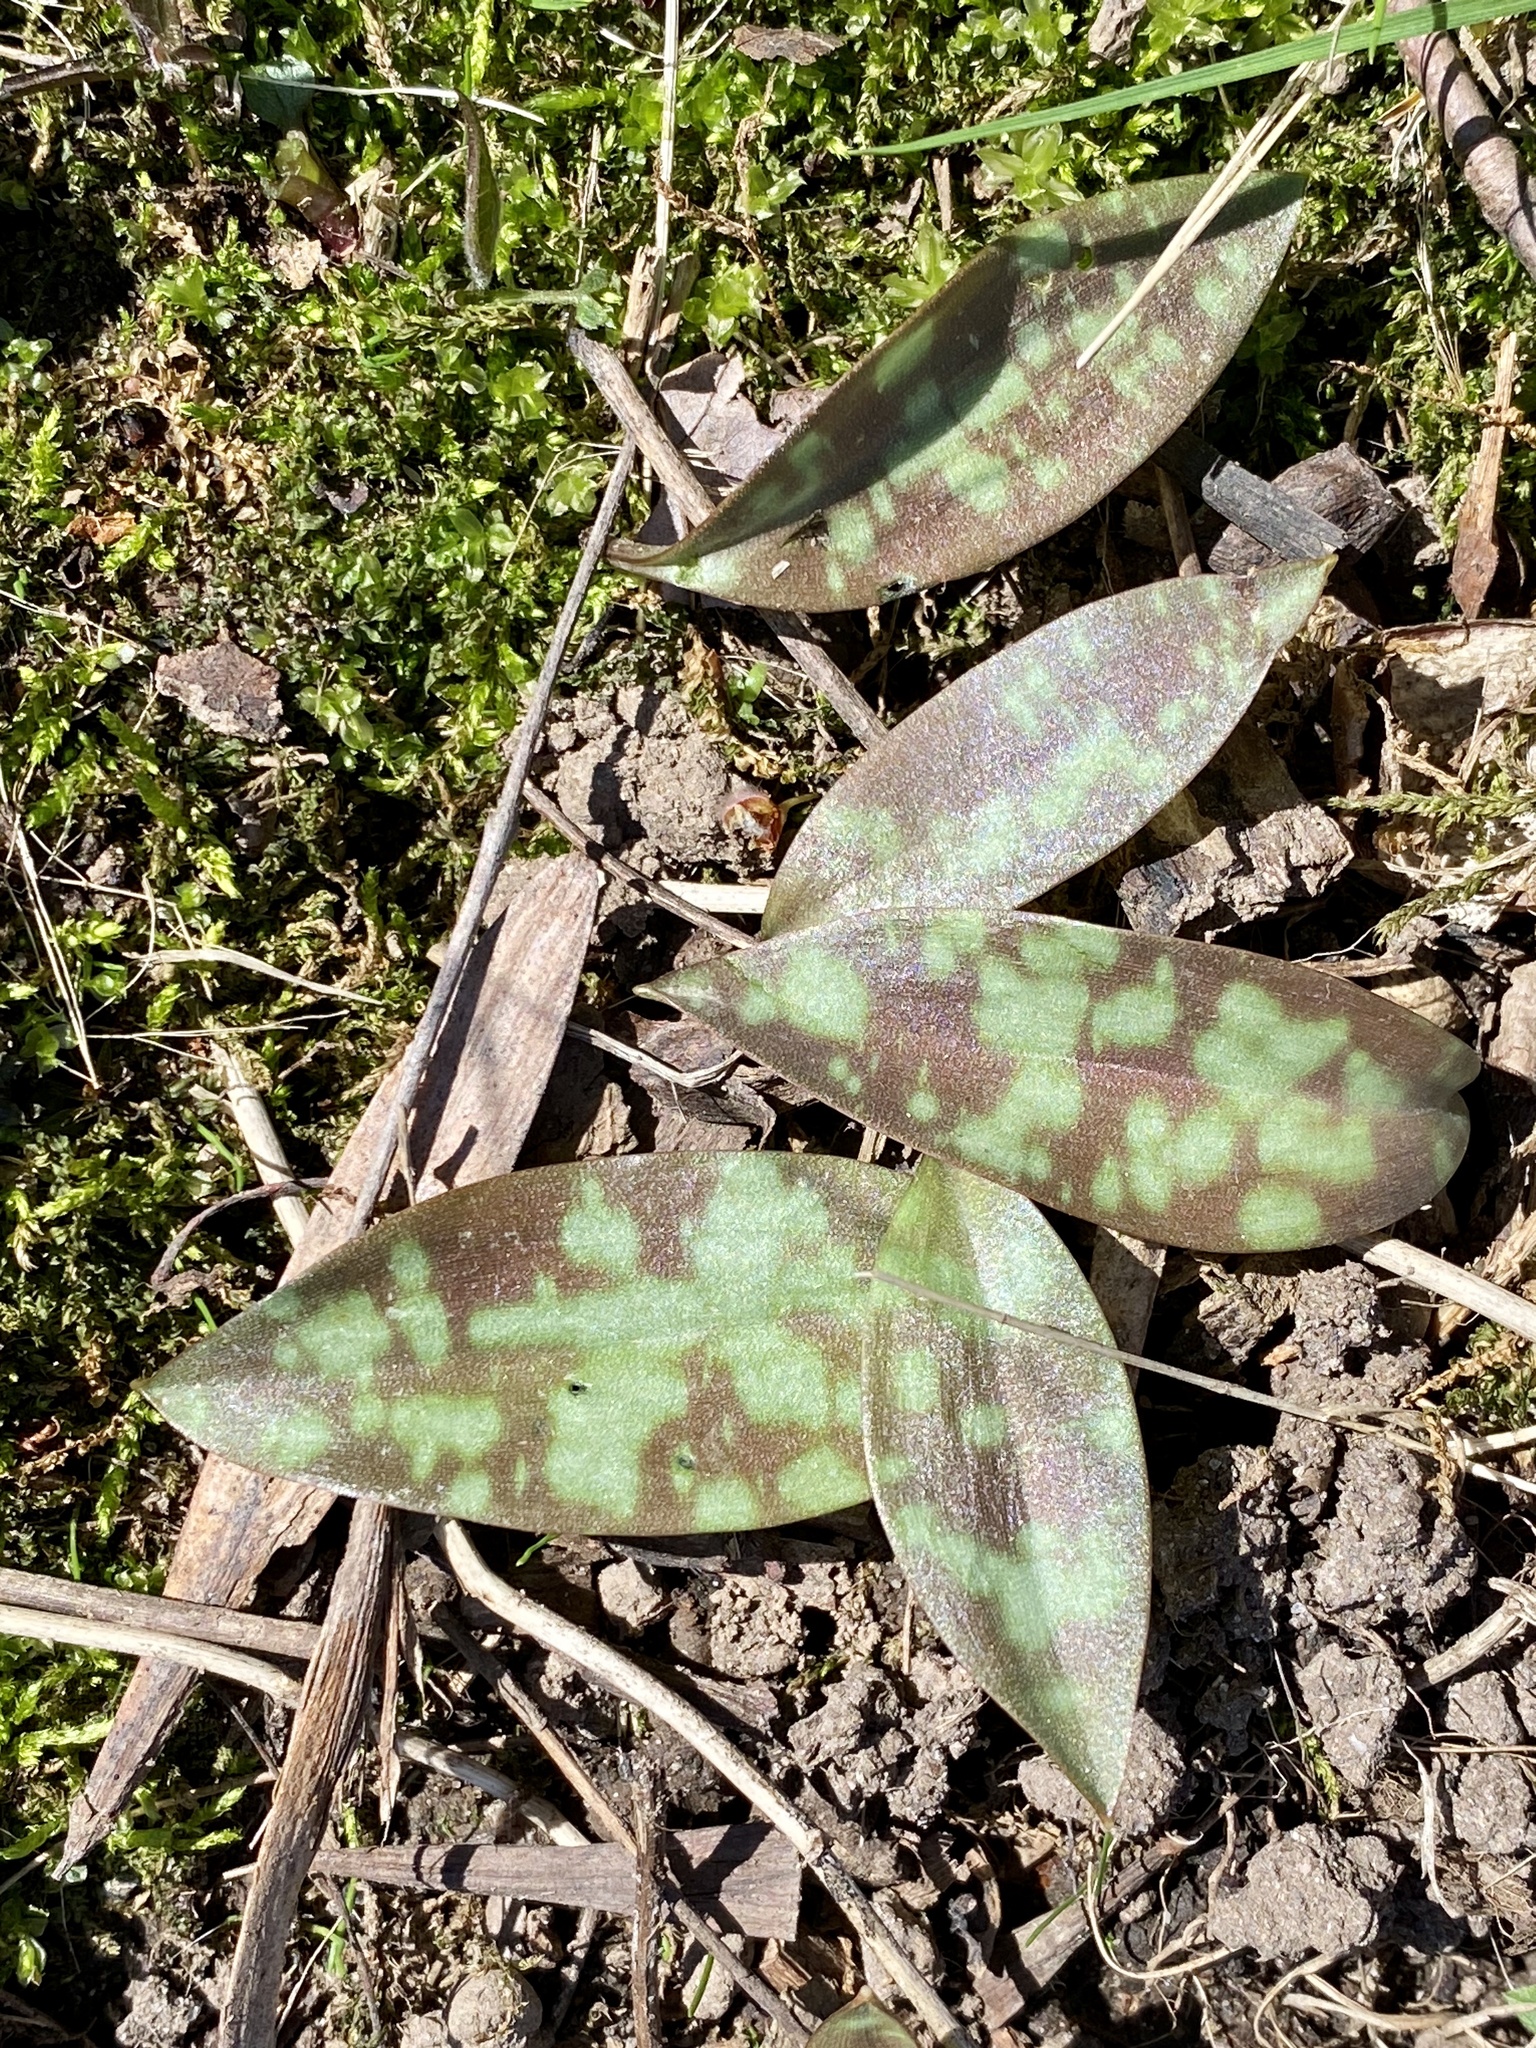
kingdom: Plantae
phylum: Tracheophyta
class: Liliopsida
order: Liliales
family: Liliaceae
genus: Erythronium
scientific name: Erythronium americanum
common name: Yellow adder's-tongue
